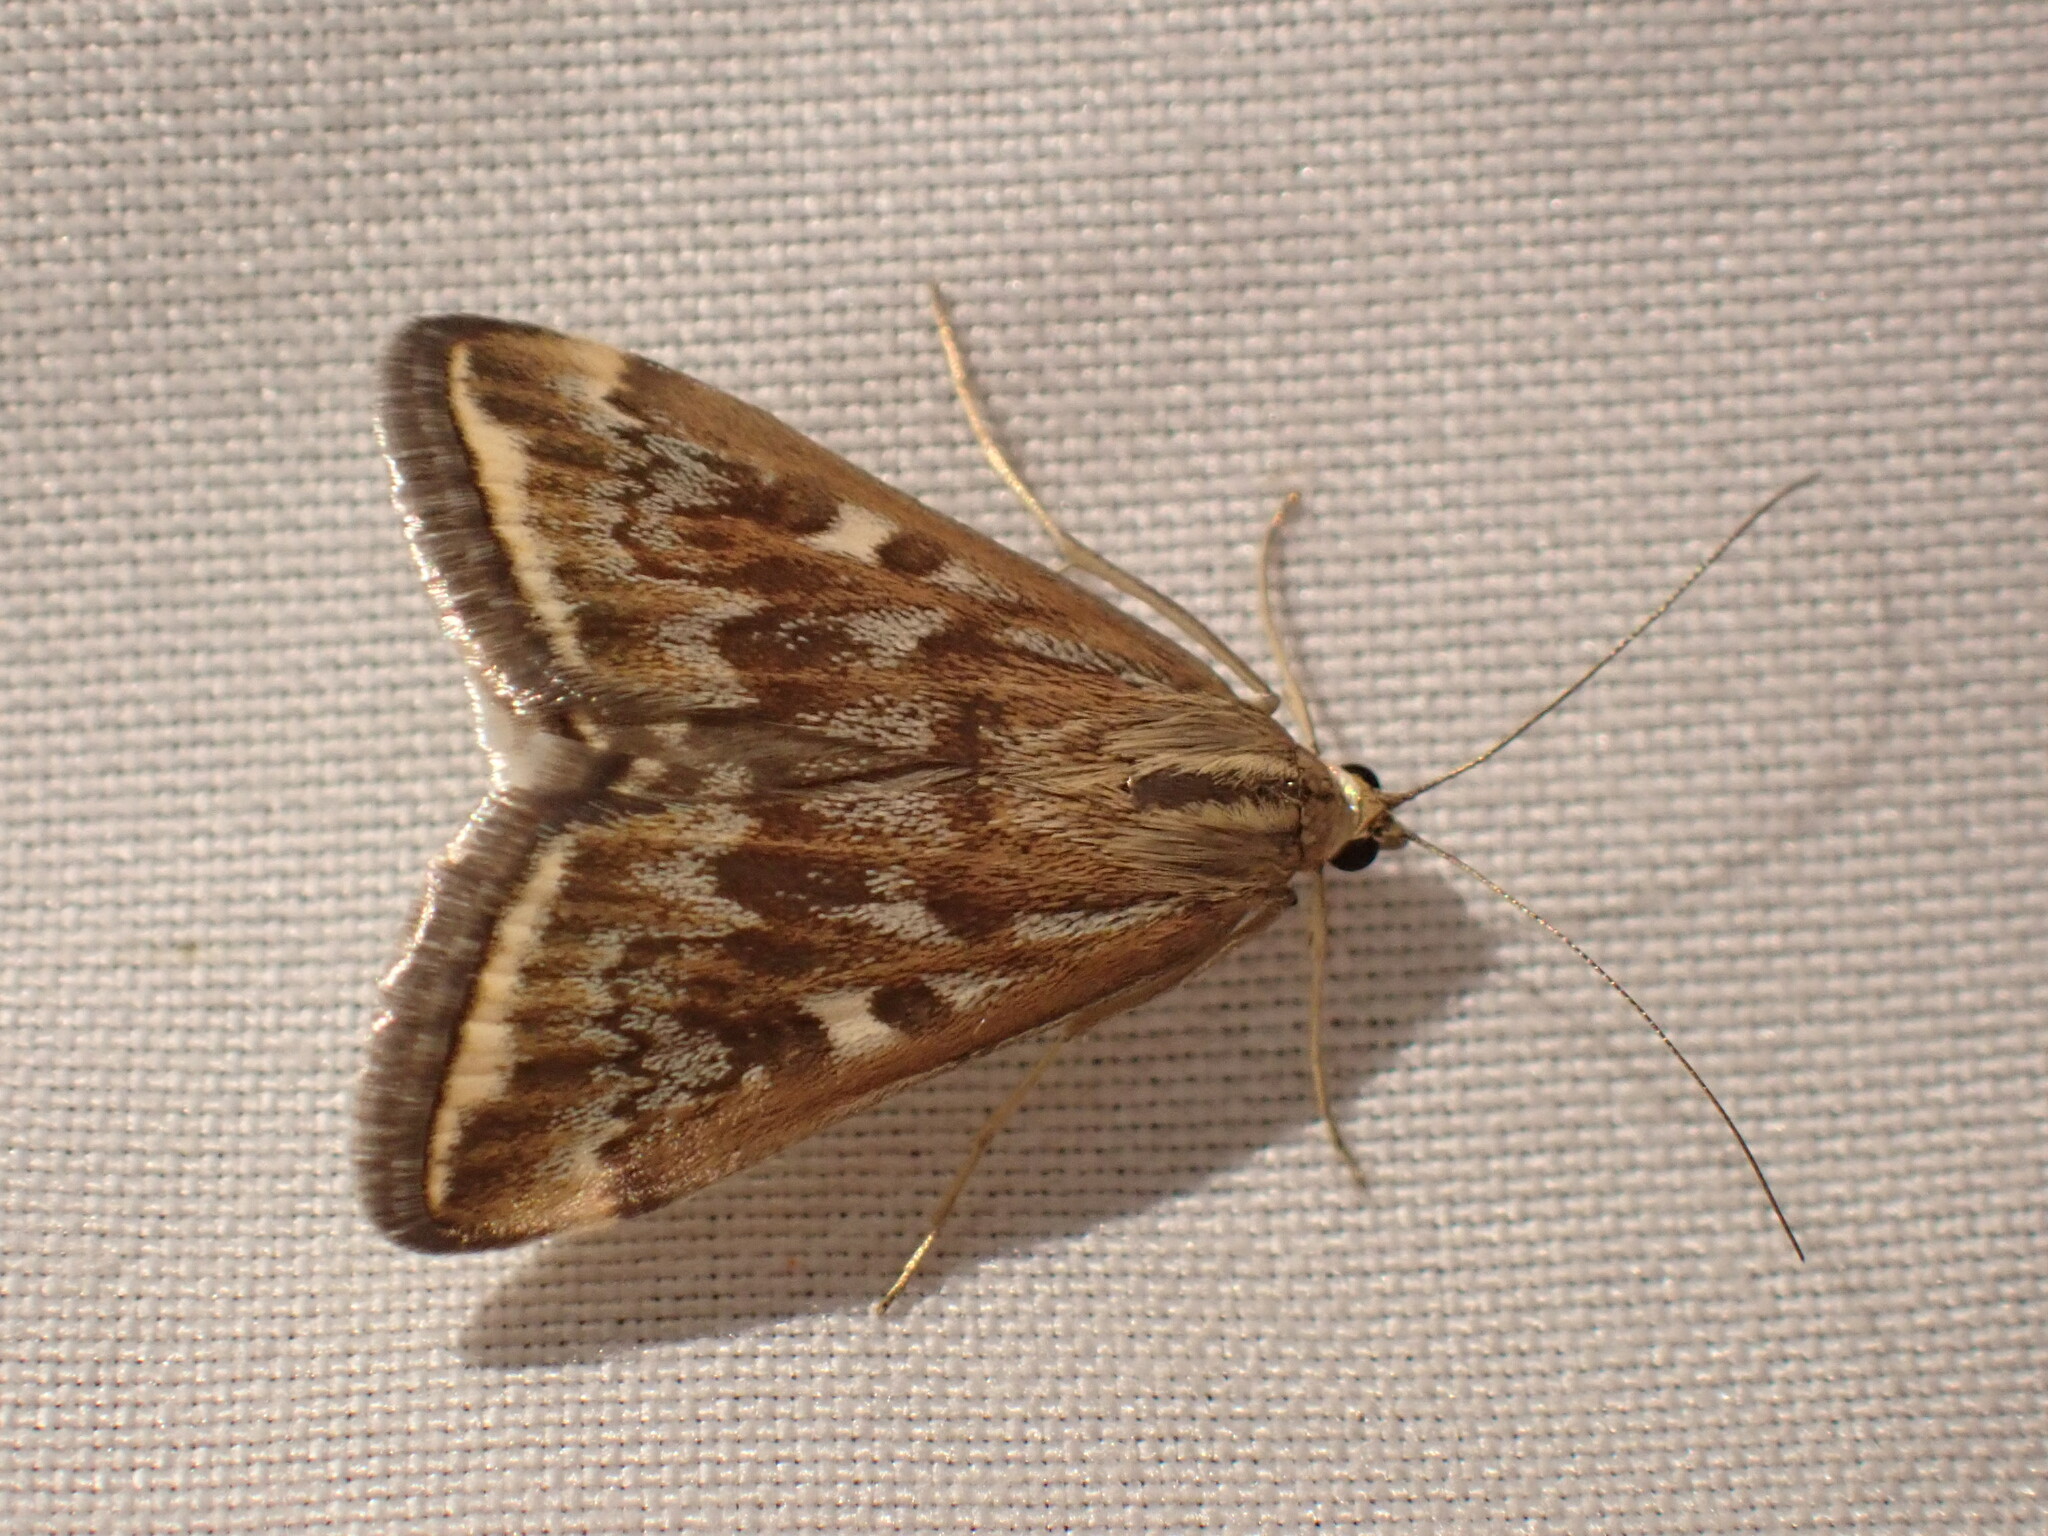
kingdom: Animalia
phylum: Arthropoda
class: Insecta
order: Lepidoptera
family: Crambidae
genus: Loxostege
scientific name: Loxostege
